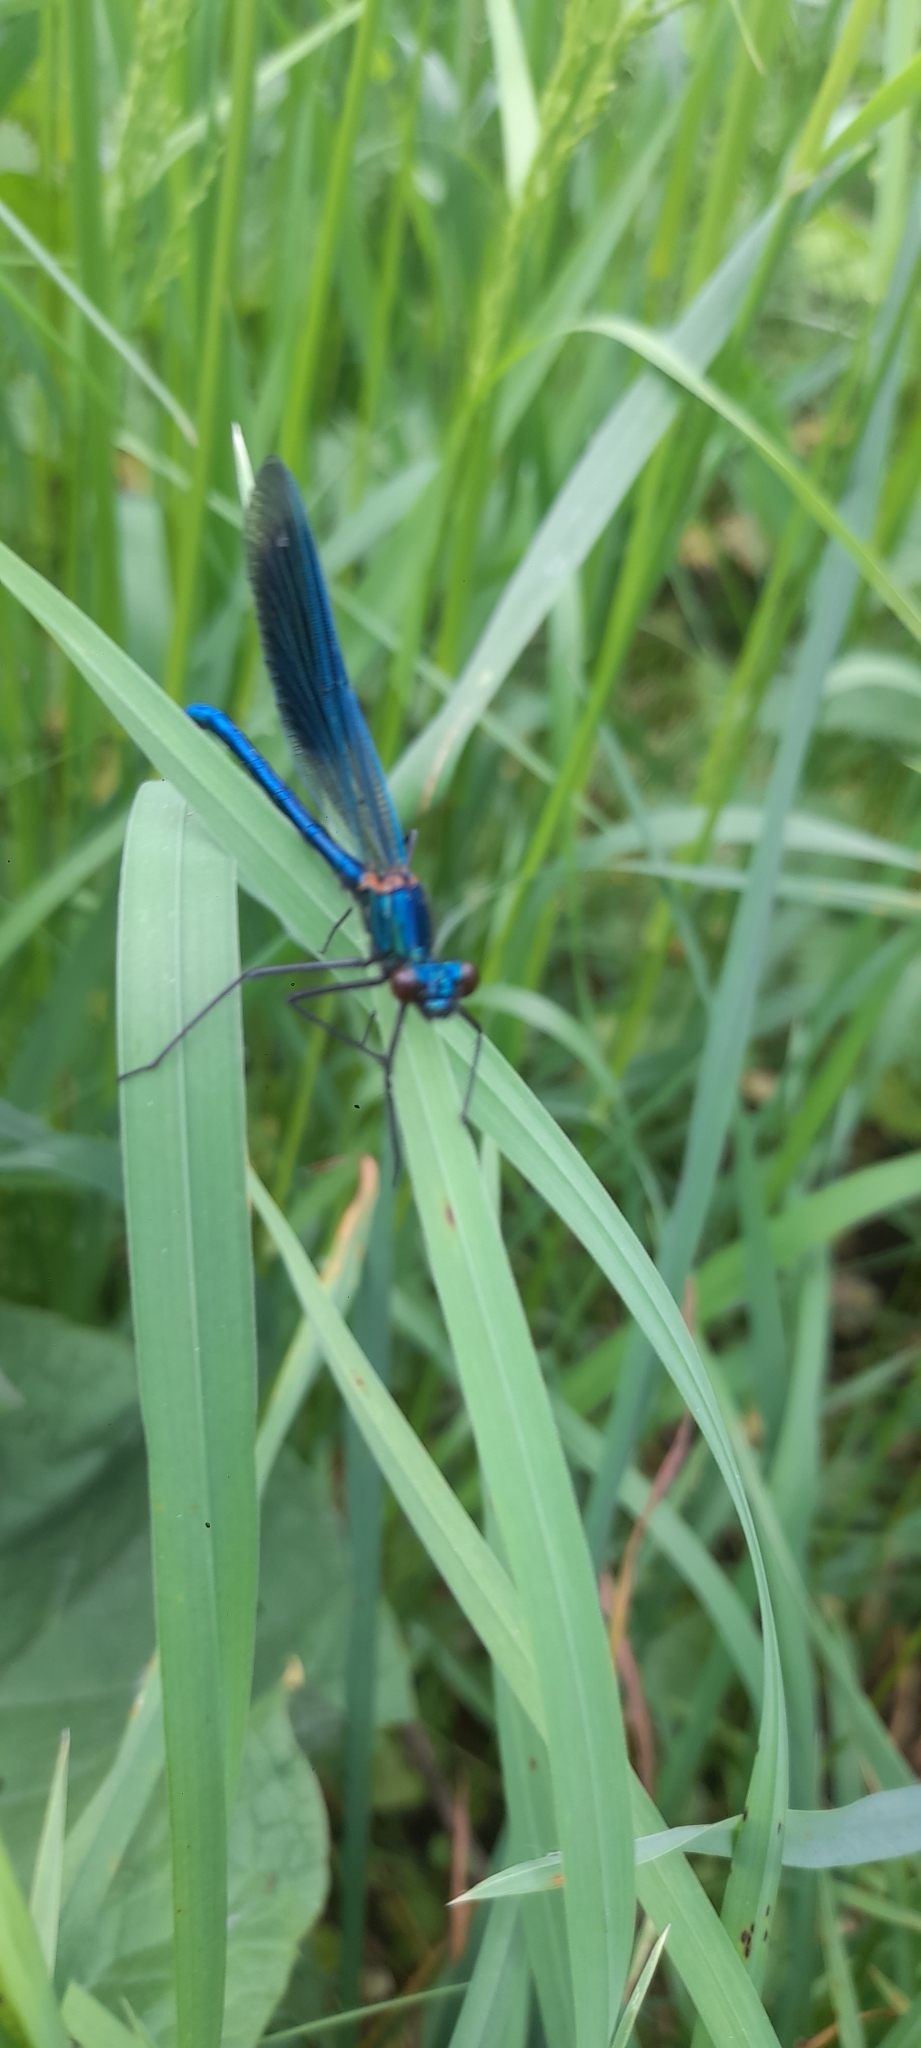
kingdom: Animalia
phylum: Arthropoda
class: Insecta
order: Odonata
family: Calopterygidae
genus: Calopteryx
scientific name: Calopteryx splendens
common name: Banded demoiselle
